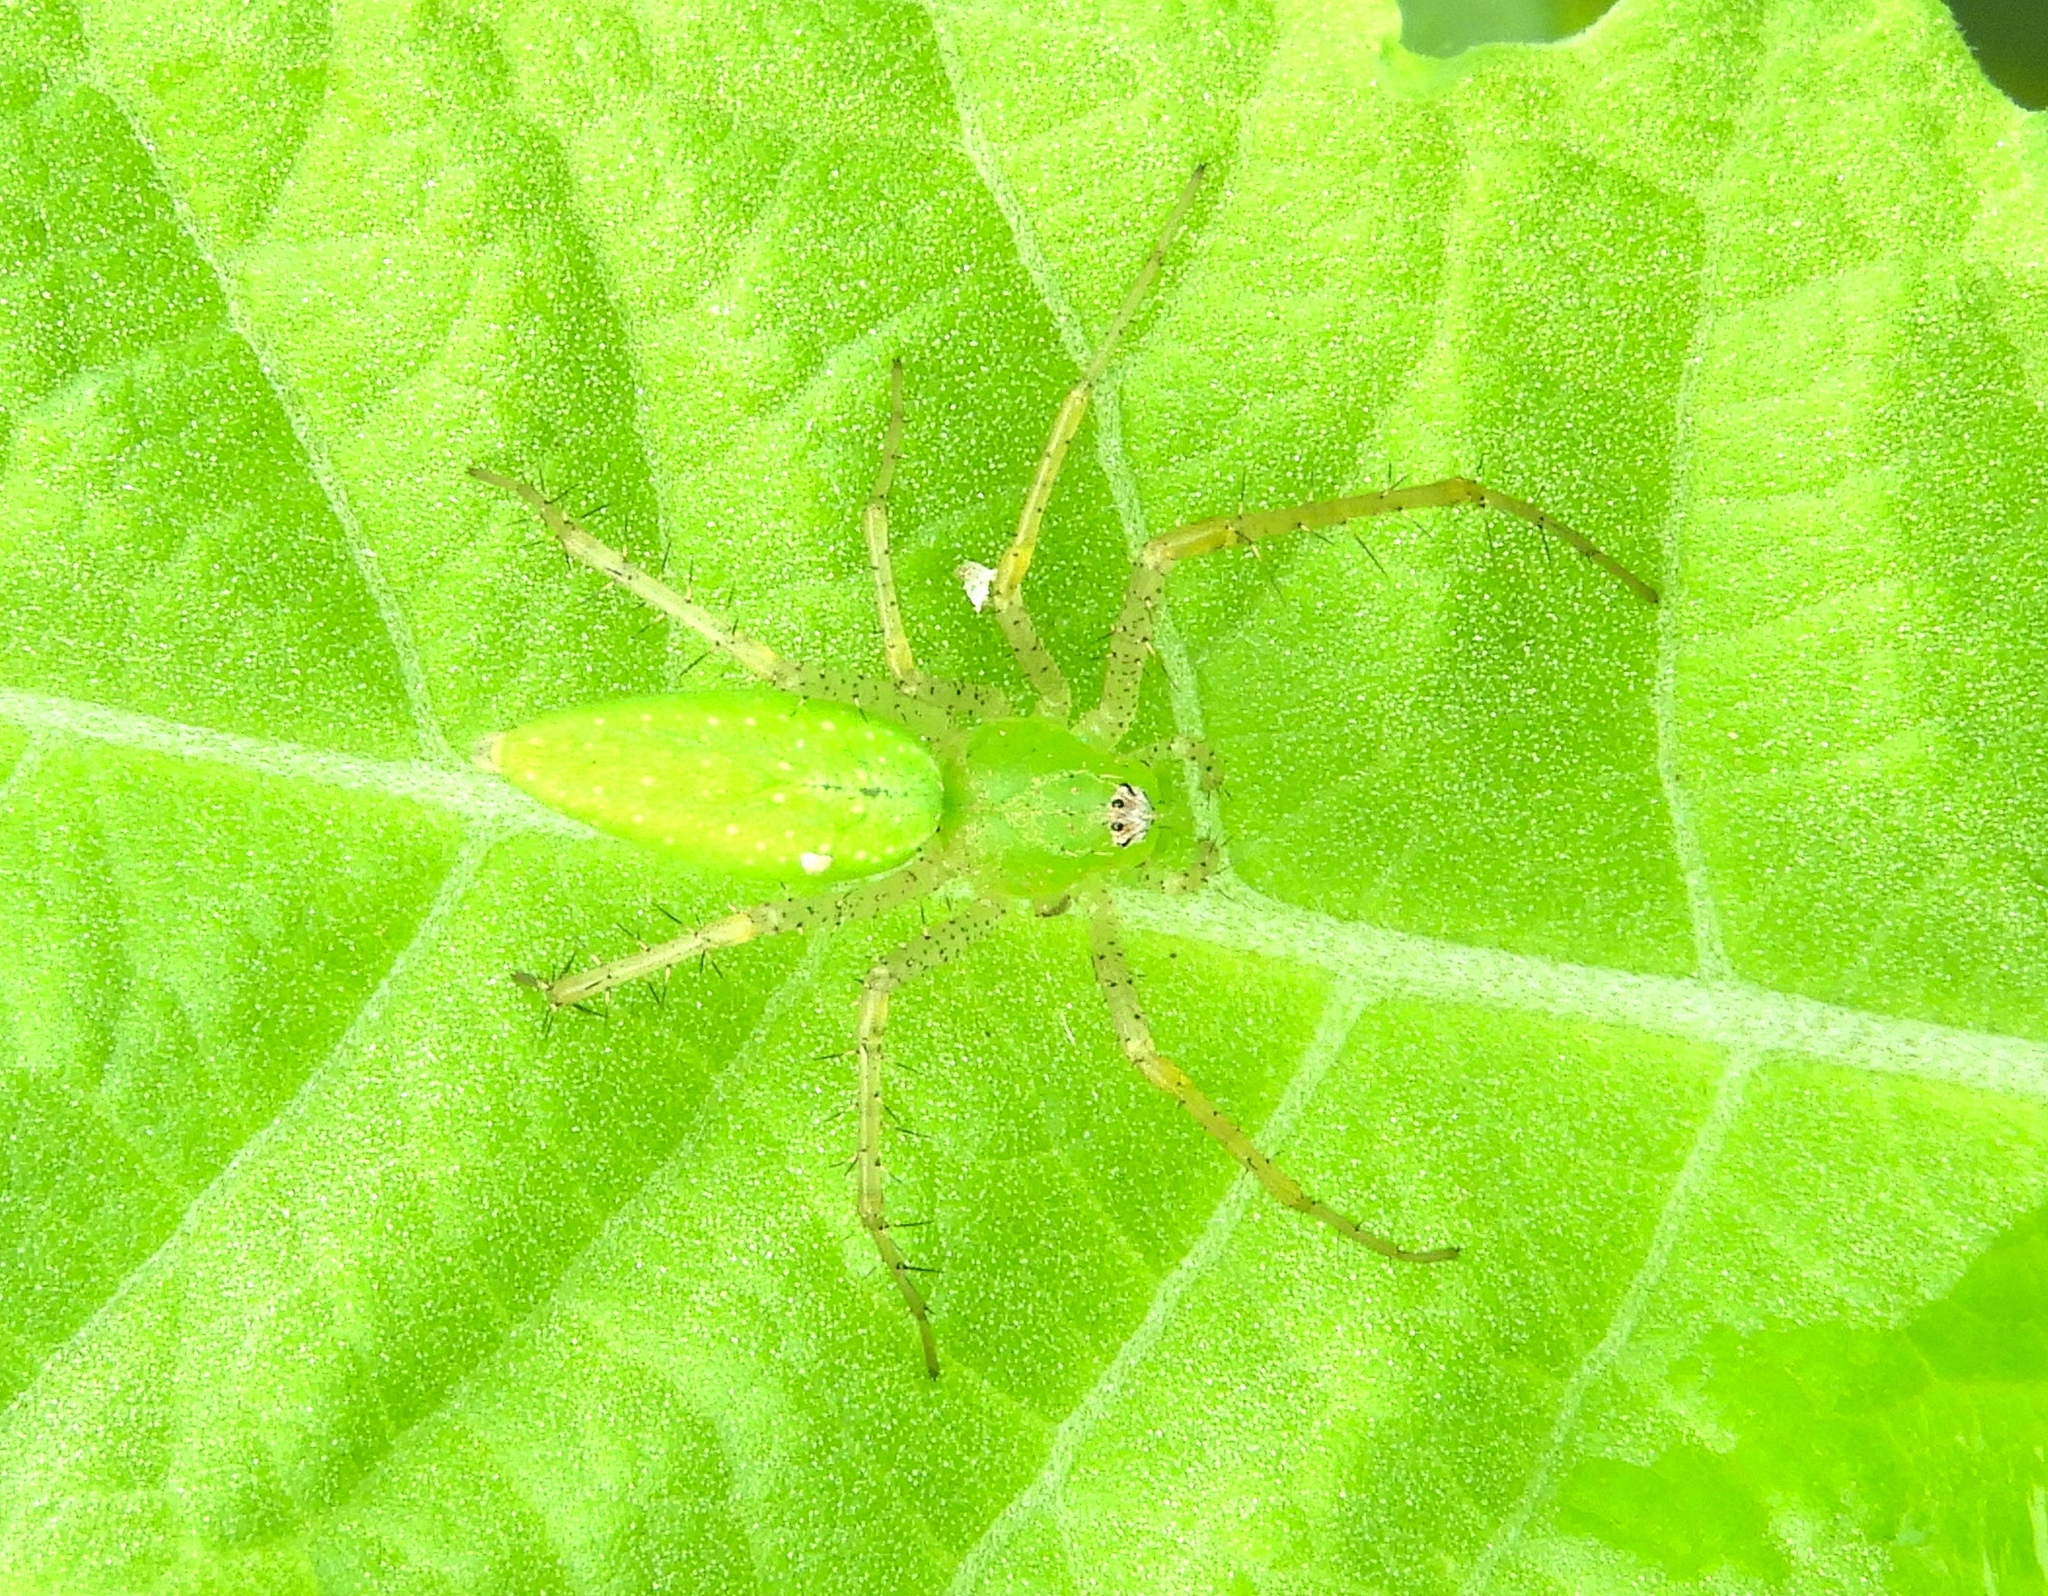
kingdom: Animalia
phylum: Arthropoda
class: Arachnida
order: Araneae
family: Oxyopidae
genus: Peucetia
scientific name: Peucetia
